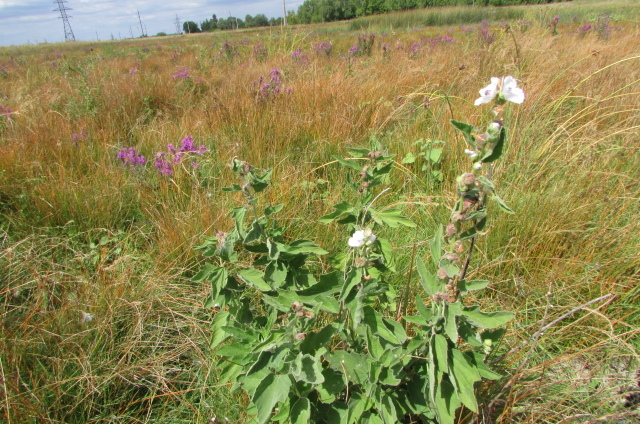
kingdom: Plantae
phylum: Tracheophyta
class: Magnoliopsida
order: Malvales
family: Malvaceae
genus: Althaea
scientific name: Althaea officinalis
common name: Marsh-mallow
